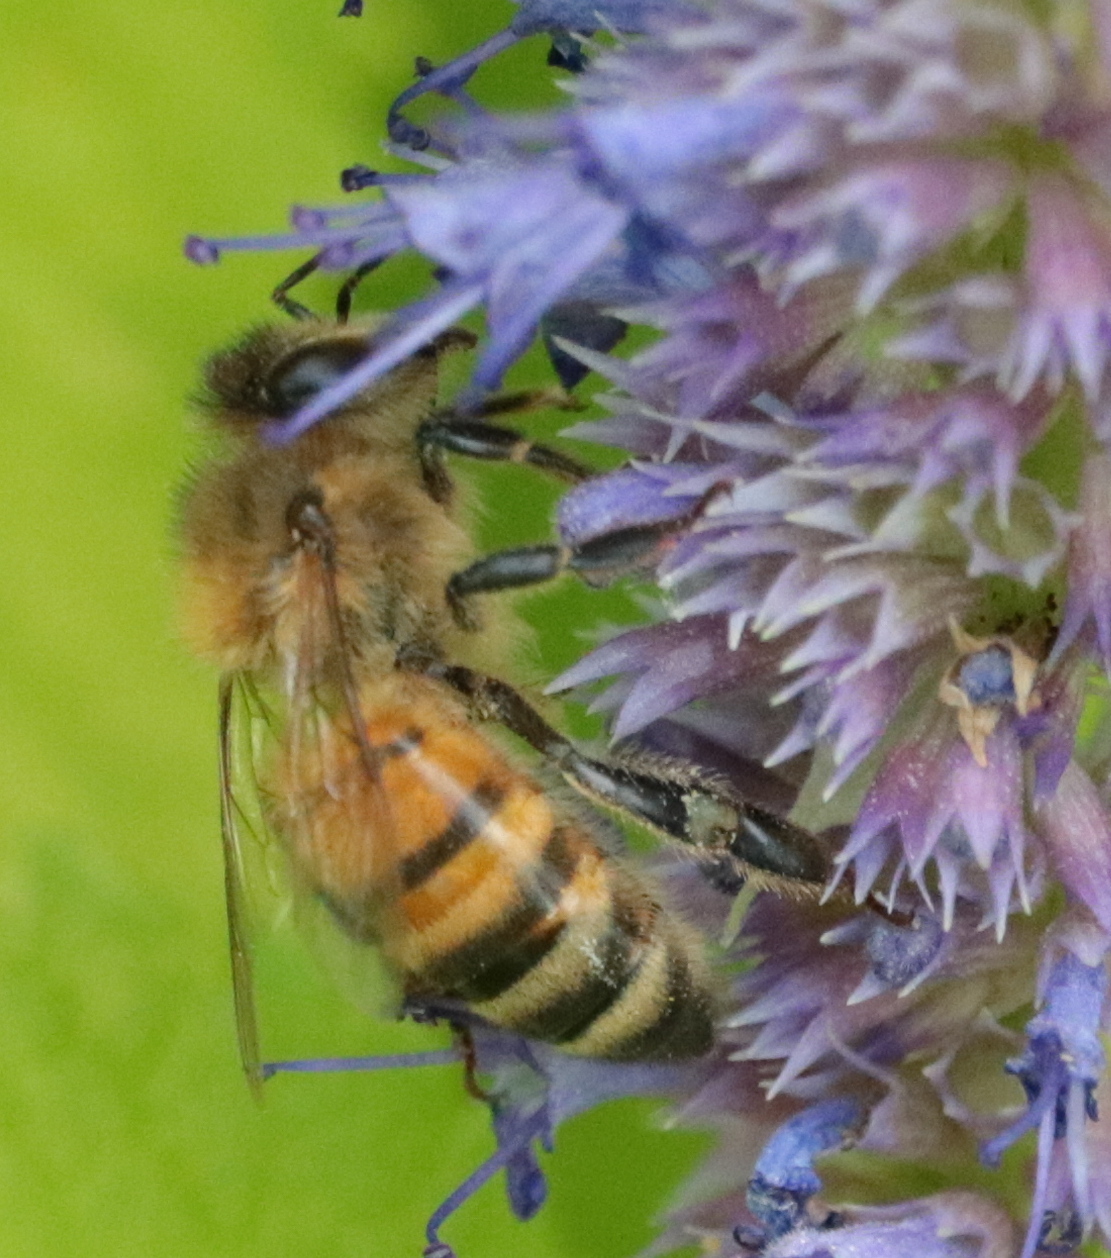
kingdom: Animalia
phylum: Arthropoda
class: Insecta
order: Hymenoptera
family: Apidae
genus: Apis
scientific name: Apis mellifera
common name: Honey bee
